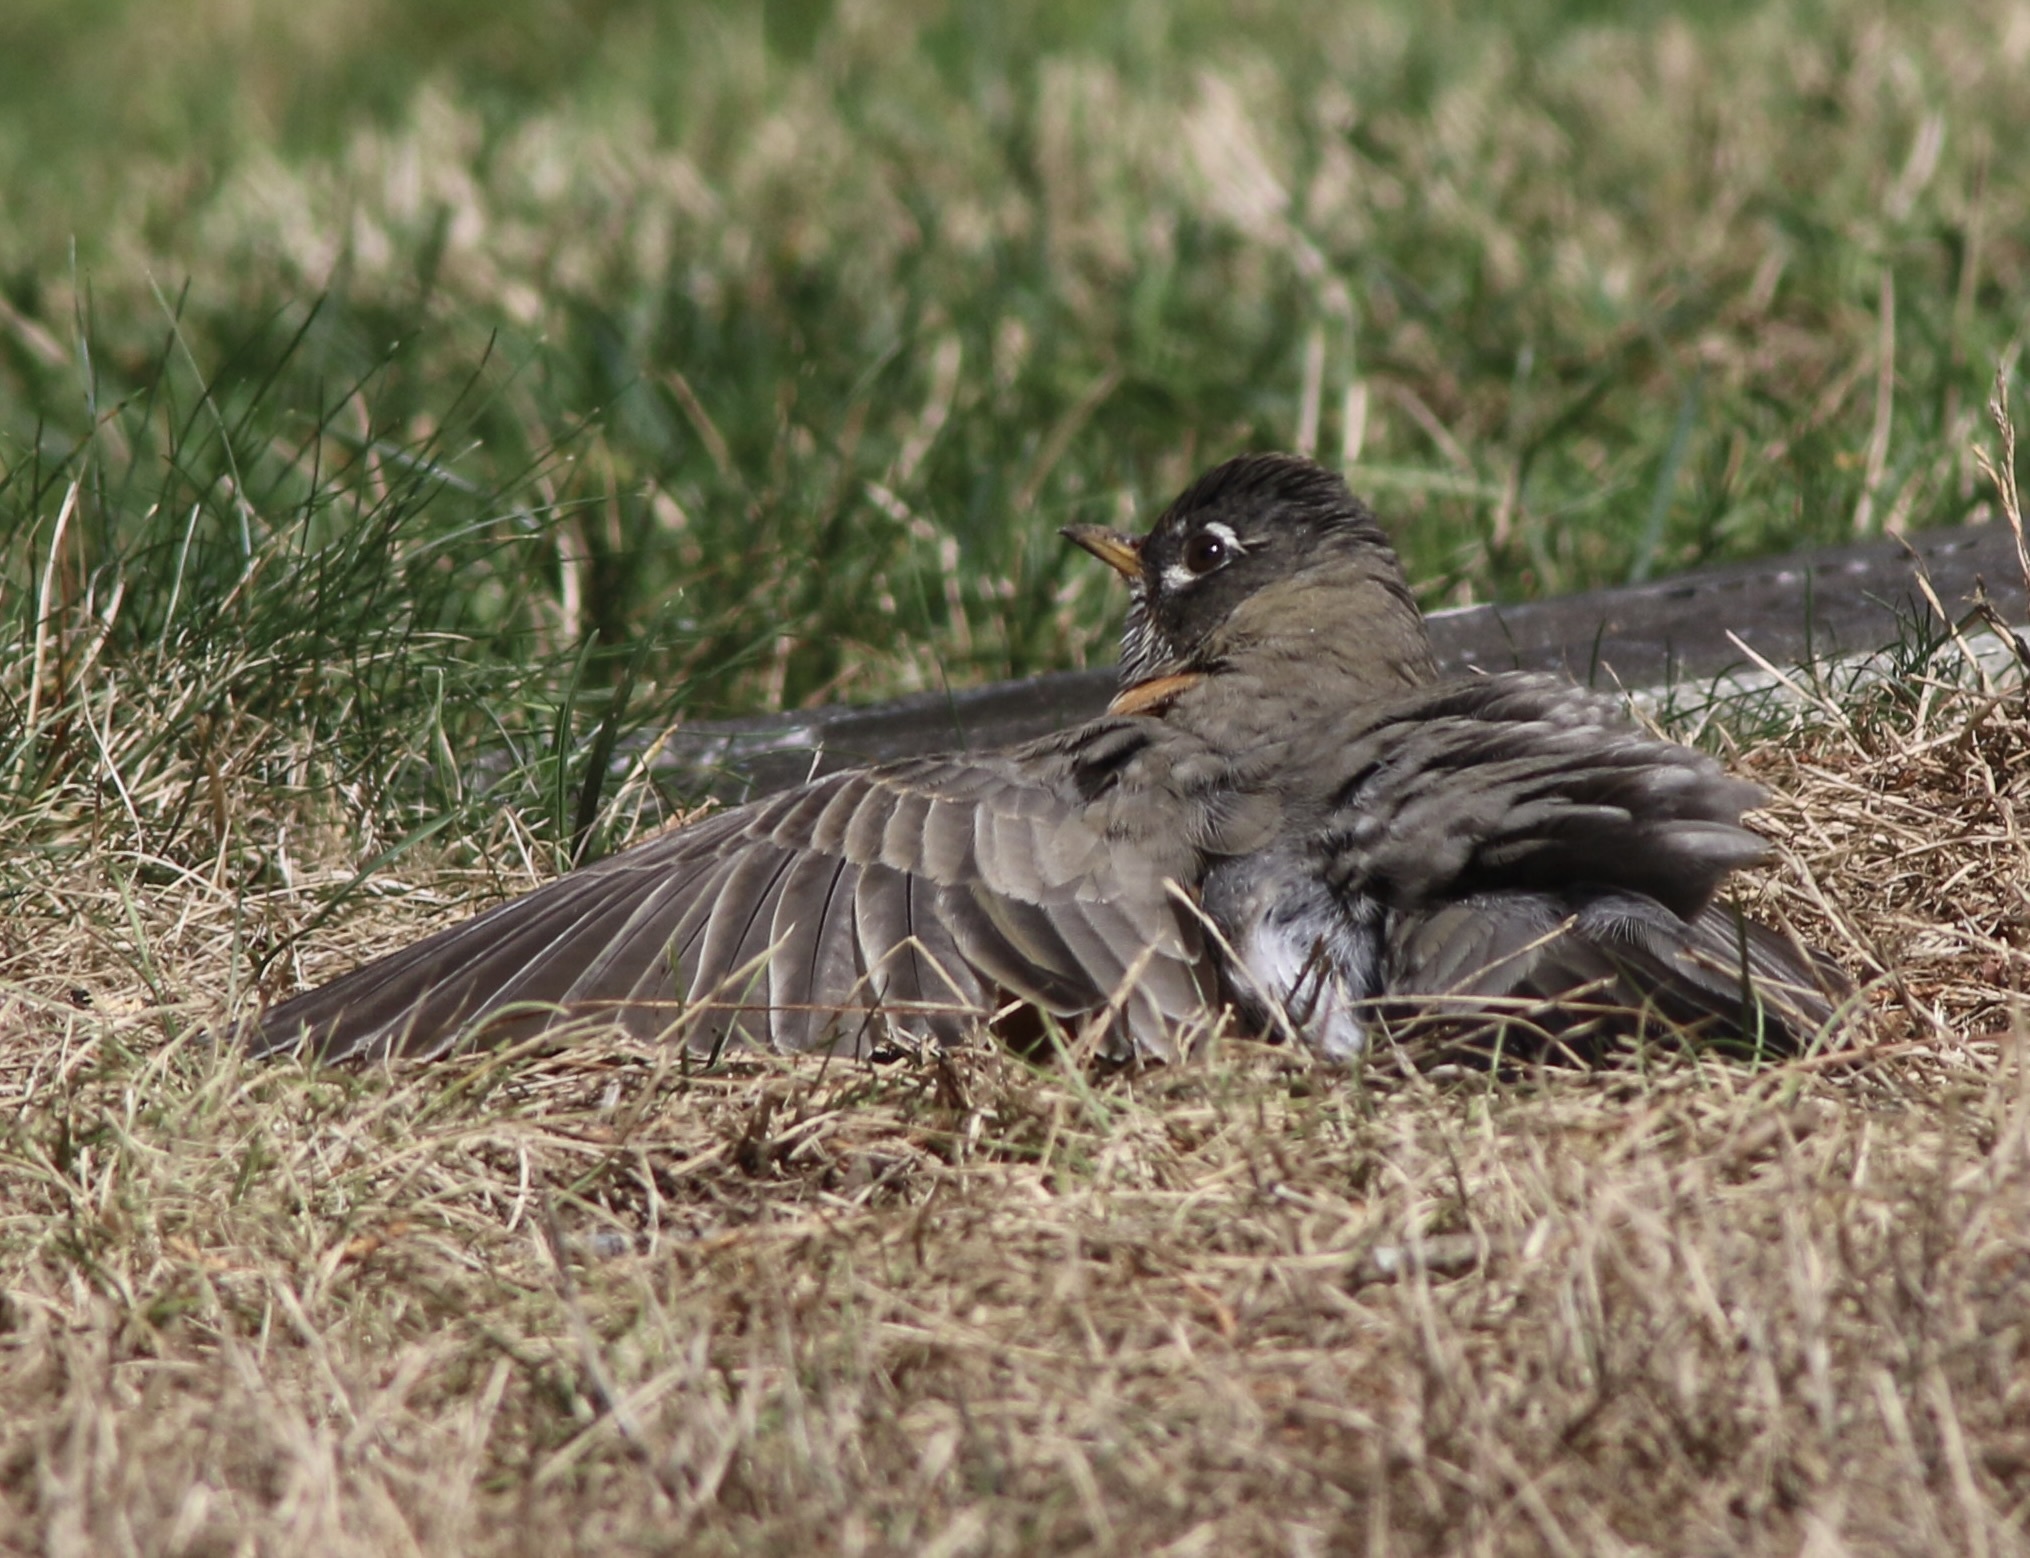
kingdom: Animalia
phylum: Chordata
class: Aves
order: Passeriformes
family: Turdidae
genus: Turdus
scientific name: Turdus migratorius
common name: American robin
